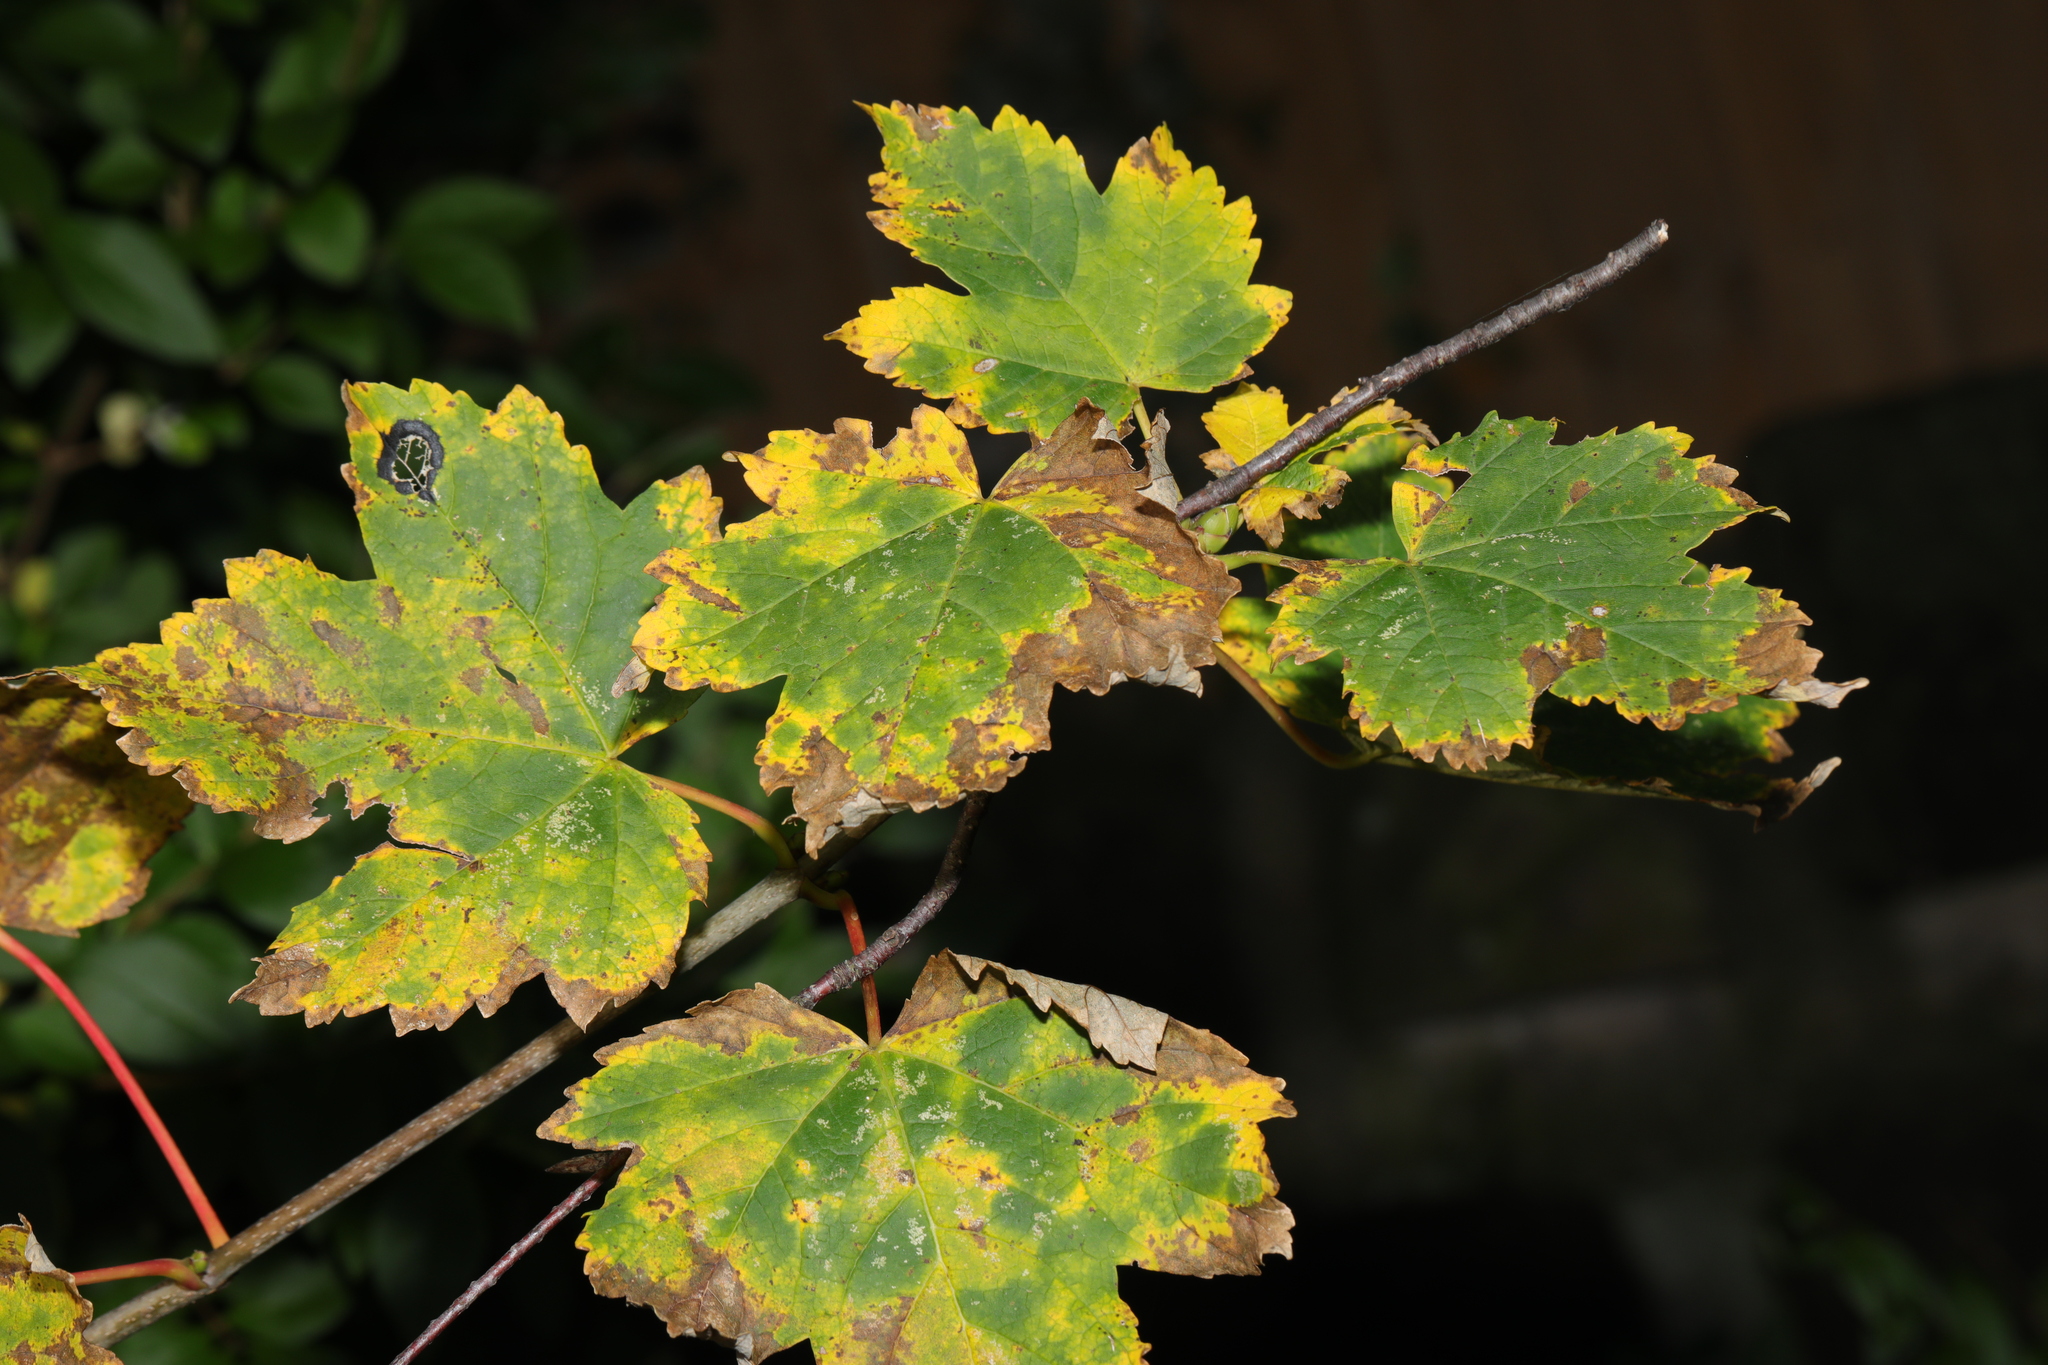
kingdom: Plantae
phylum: Tracheophyta
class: Magnoliopsida
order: Sapindales
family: Sapindaceae
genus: Acer
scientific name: Acer pseudoplatanus
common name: Sycamore
